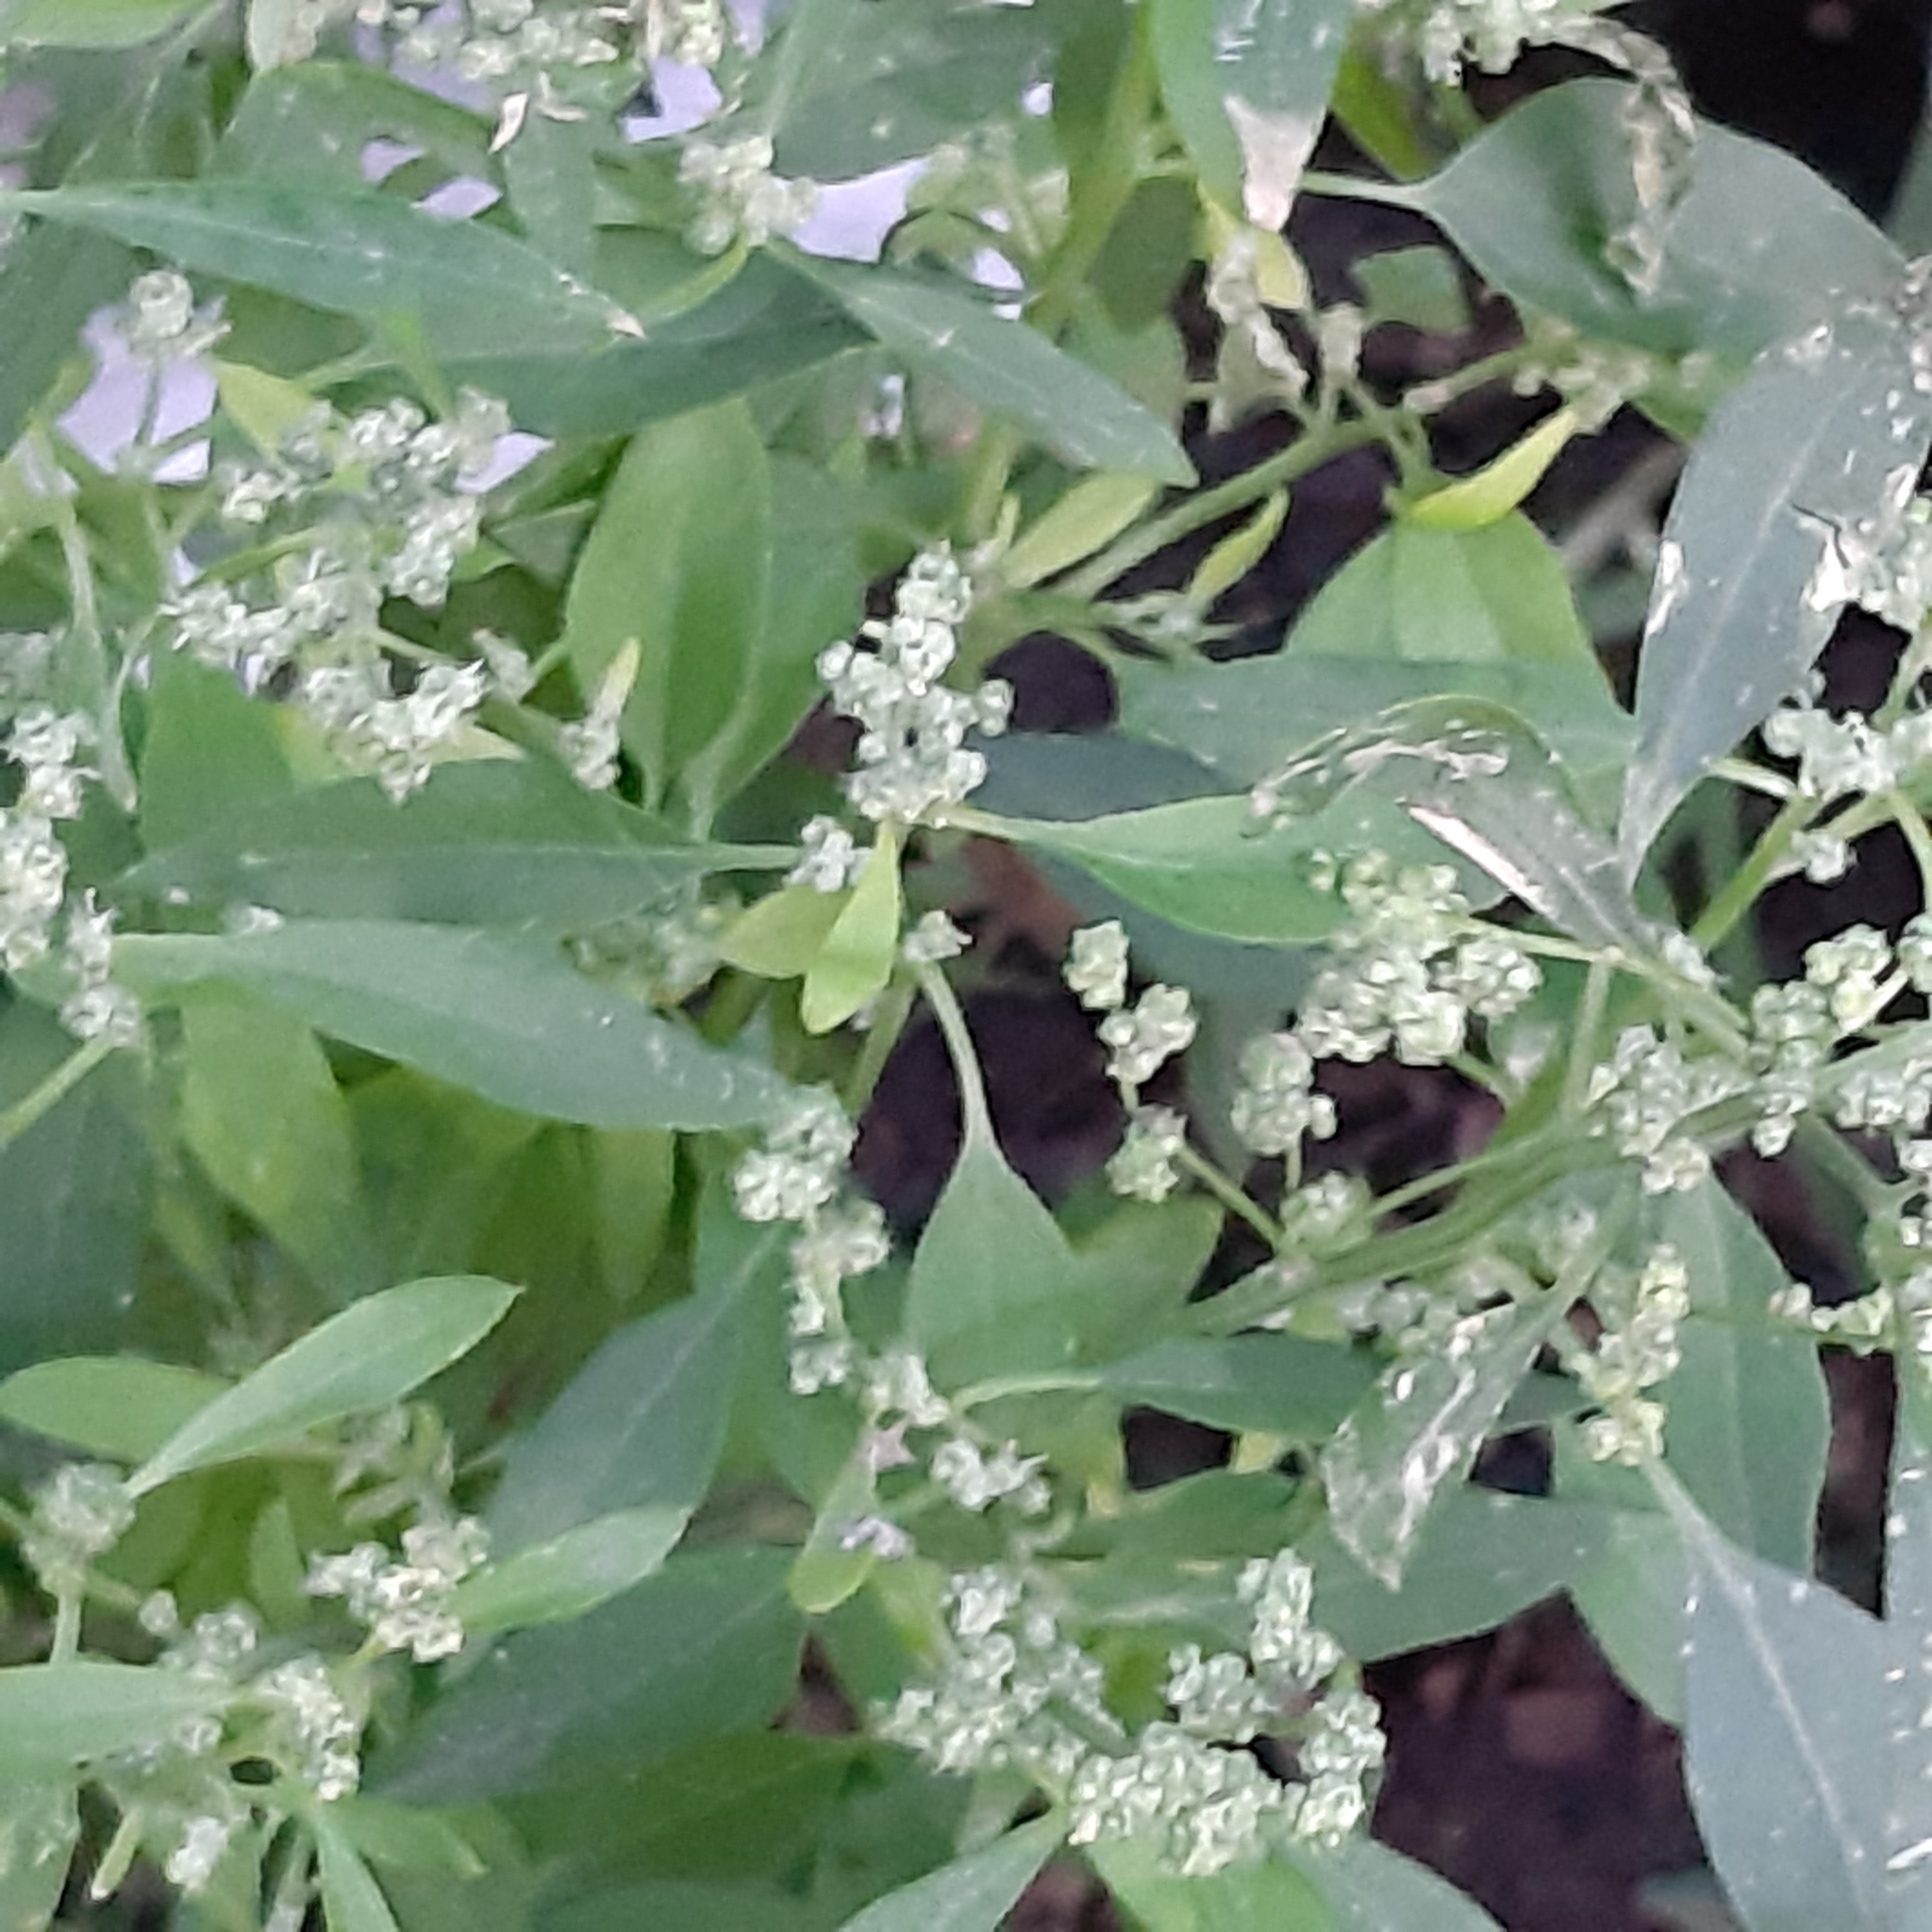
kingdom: Plantae
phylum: Tracheophyta
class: Magnoliopsida
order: Caryophyllales
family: Amaranthaceae
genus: Chenopodium
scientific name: Chenopodium album
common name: Fat-hen
